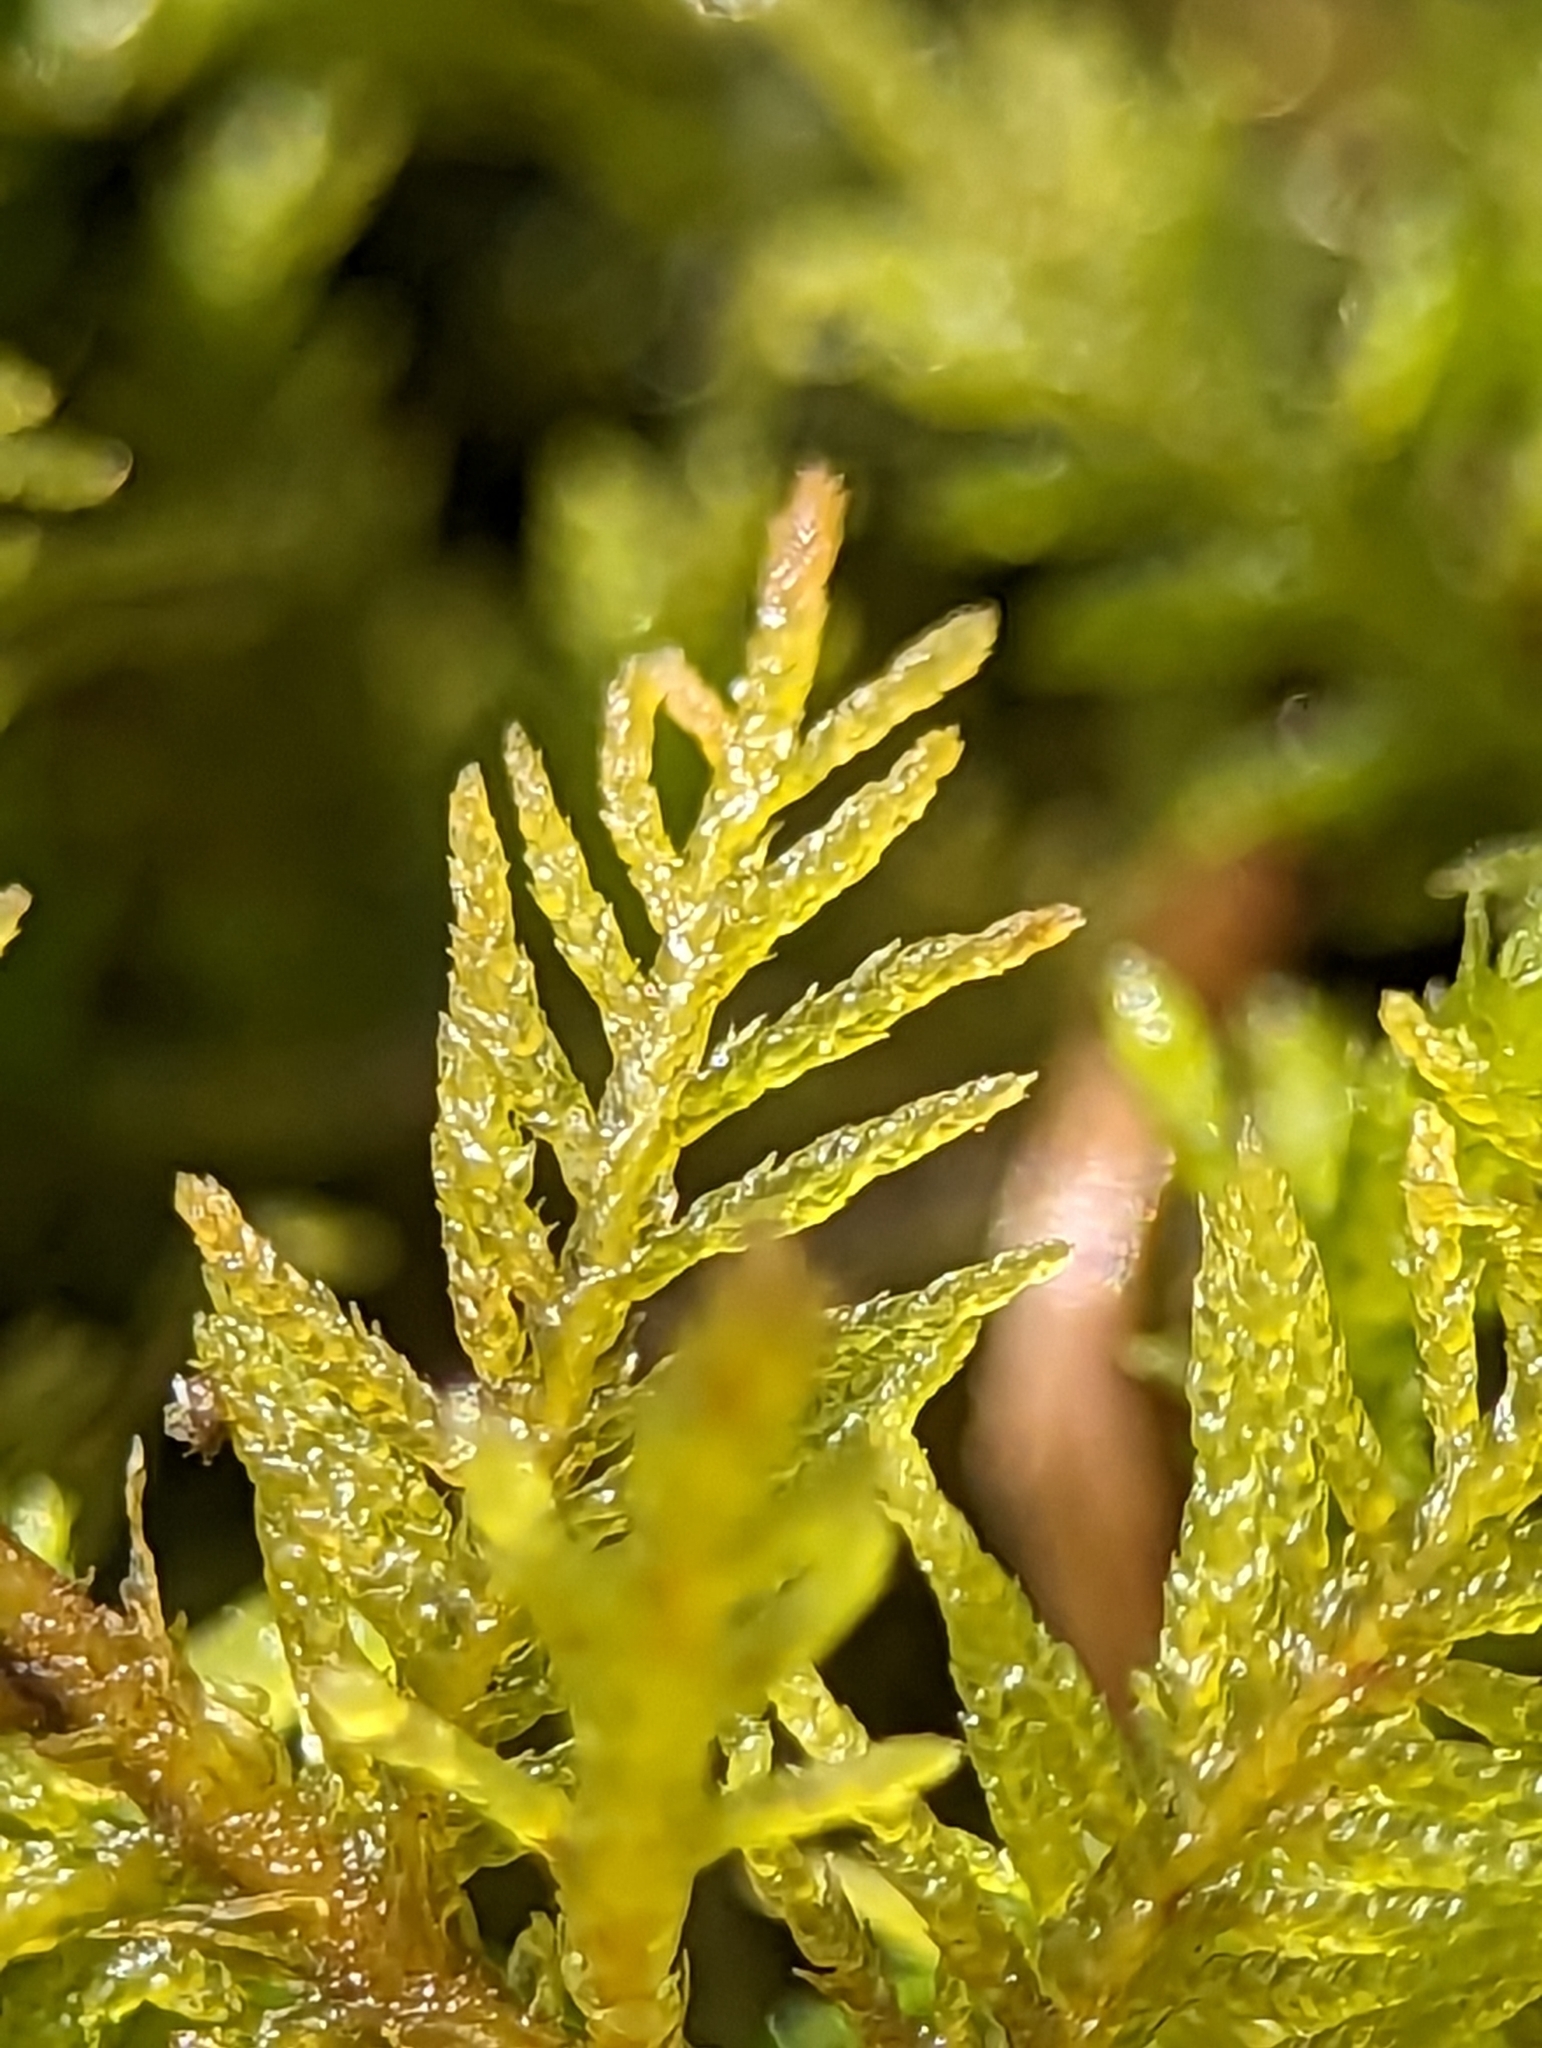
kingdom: Plantae
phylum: Bryophyta
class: Bryopsida
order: Hypnales
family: Thuidiaceae
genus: Thuidium
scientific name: Thuidium delicatulum
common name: Delicate fern moss
